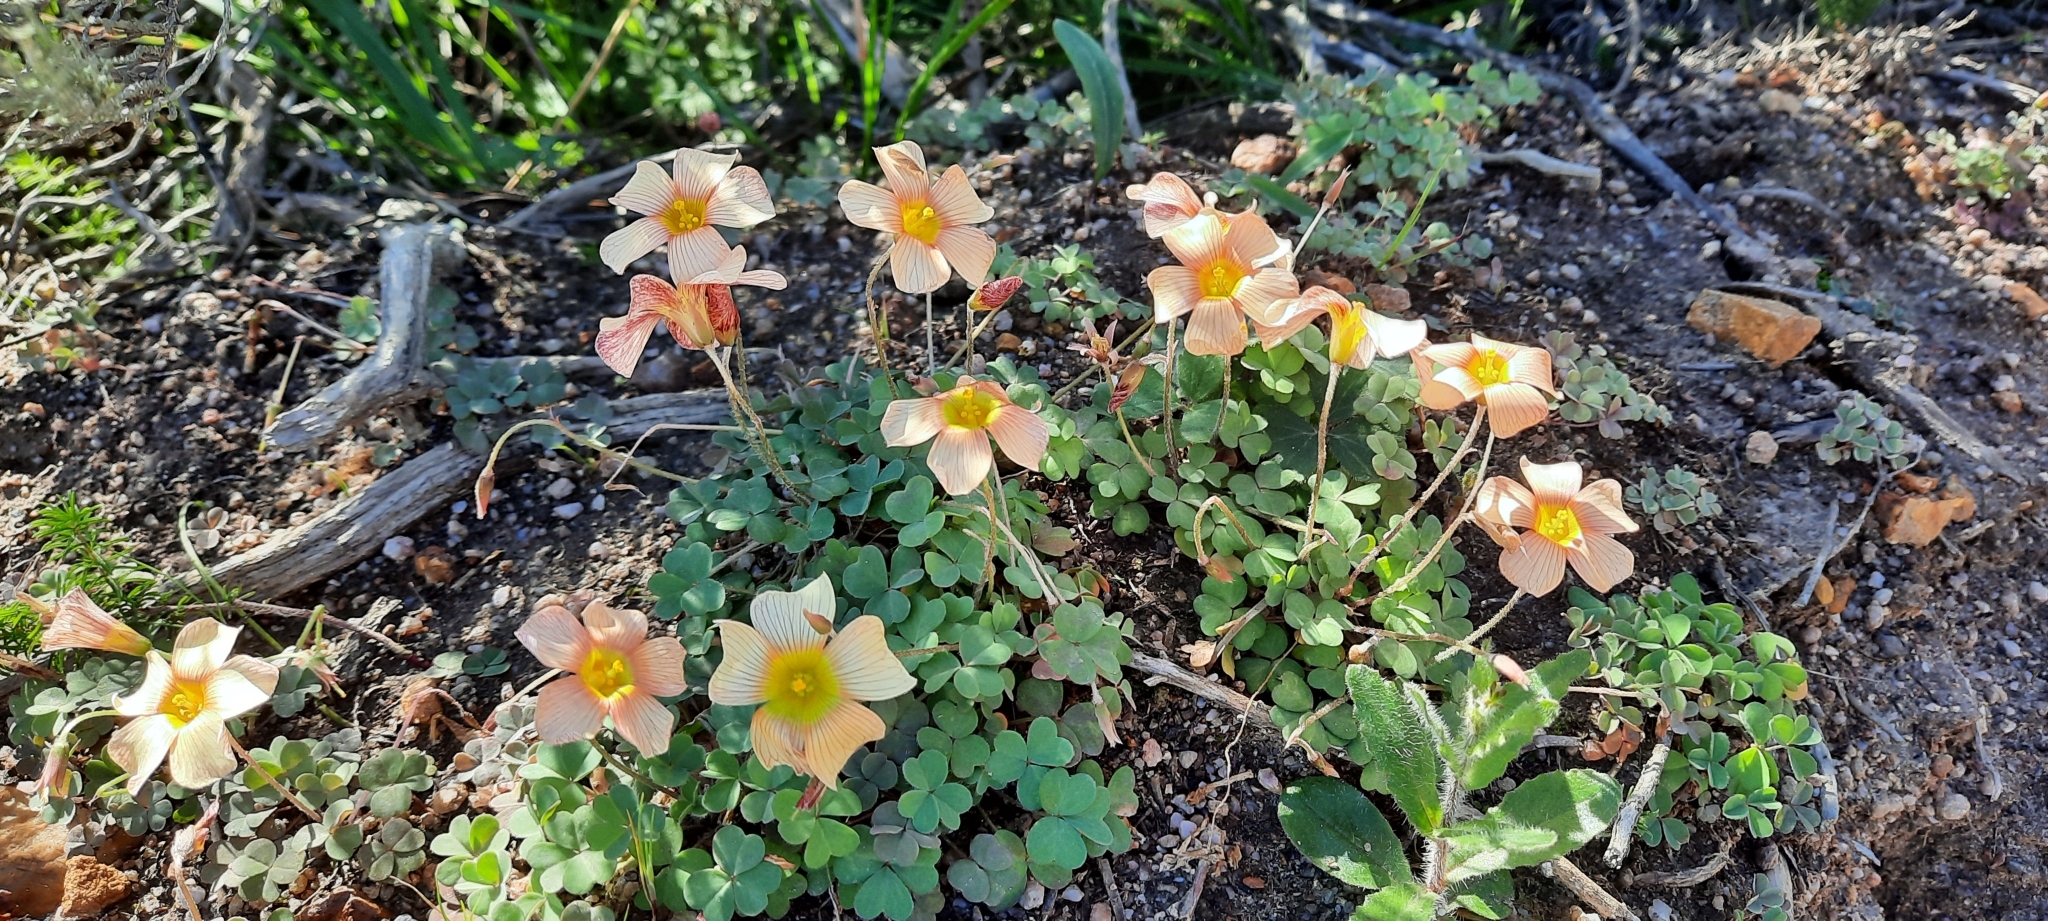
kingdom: Plantae
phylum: Tracheophyta
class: Magnoliopsida
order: Oxalidales
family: Oxalidaceae
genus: Oxalis
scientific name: Oxalis obtusa
